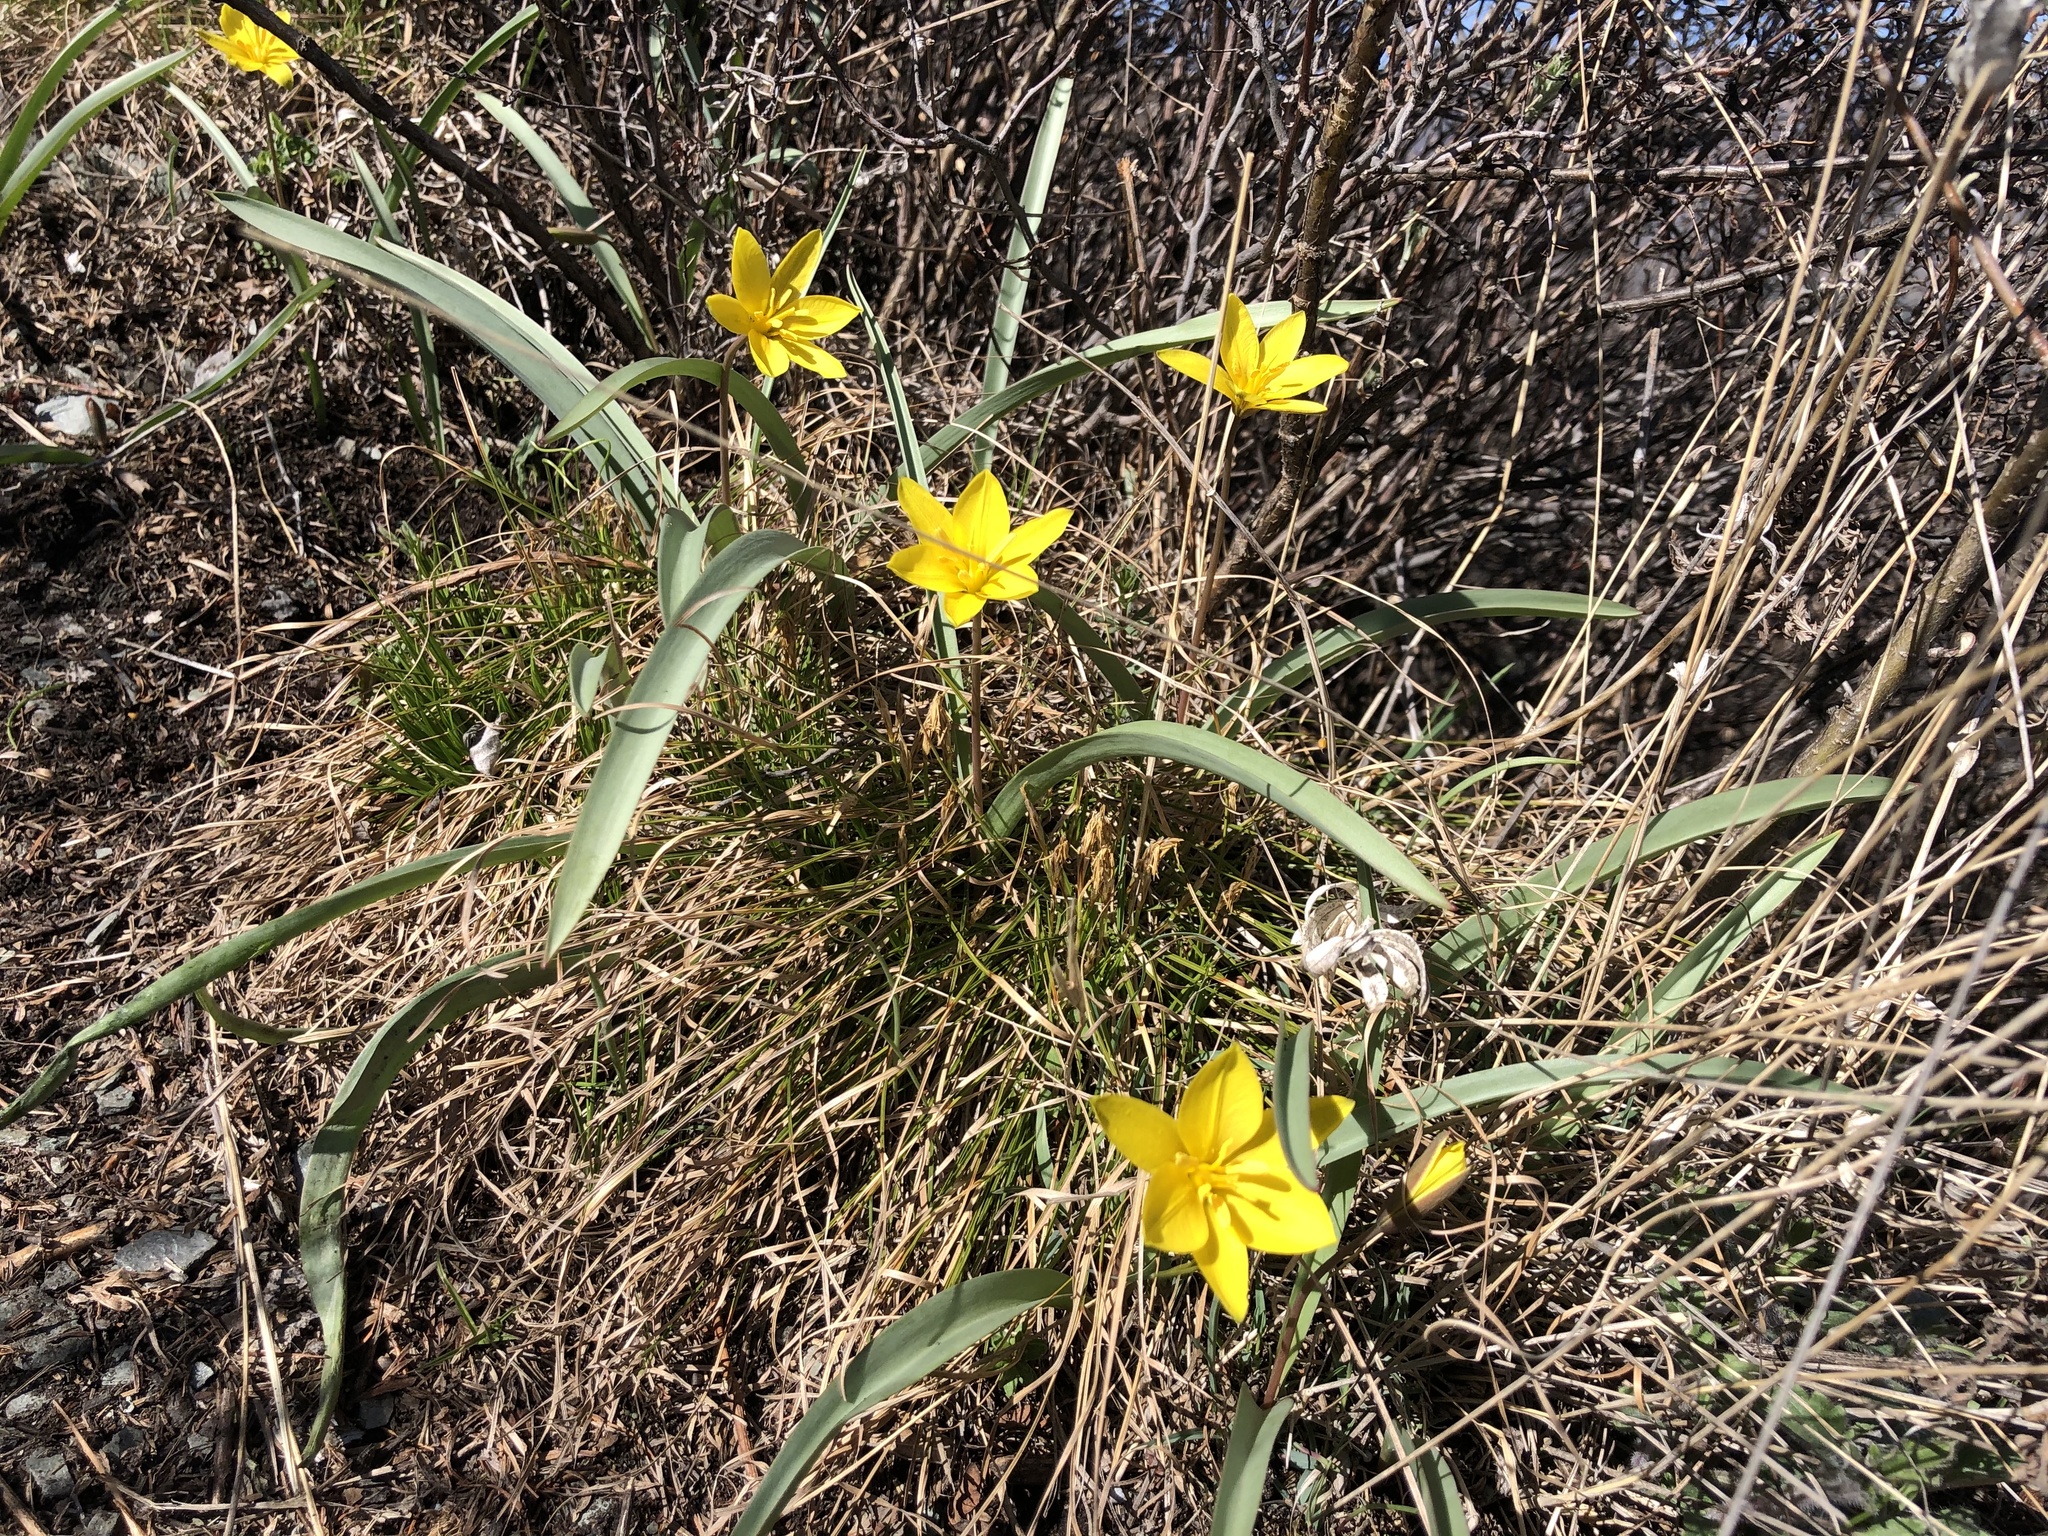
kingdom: Plantae
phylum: Tracheophyta
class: Liliopsida
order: Liliales
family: Liliaceae
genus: Tulipa
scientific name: Tulipa uniflora
